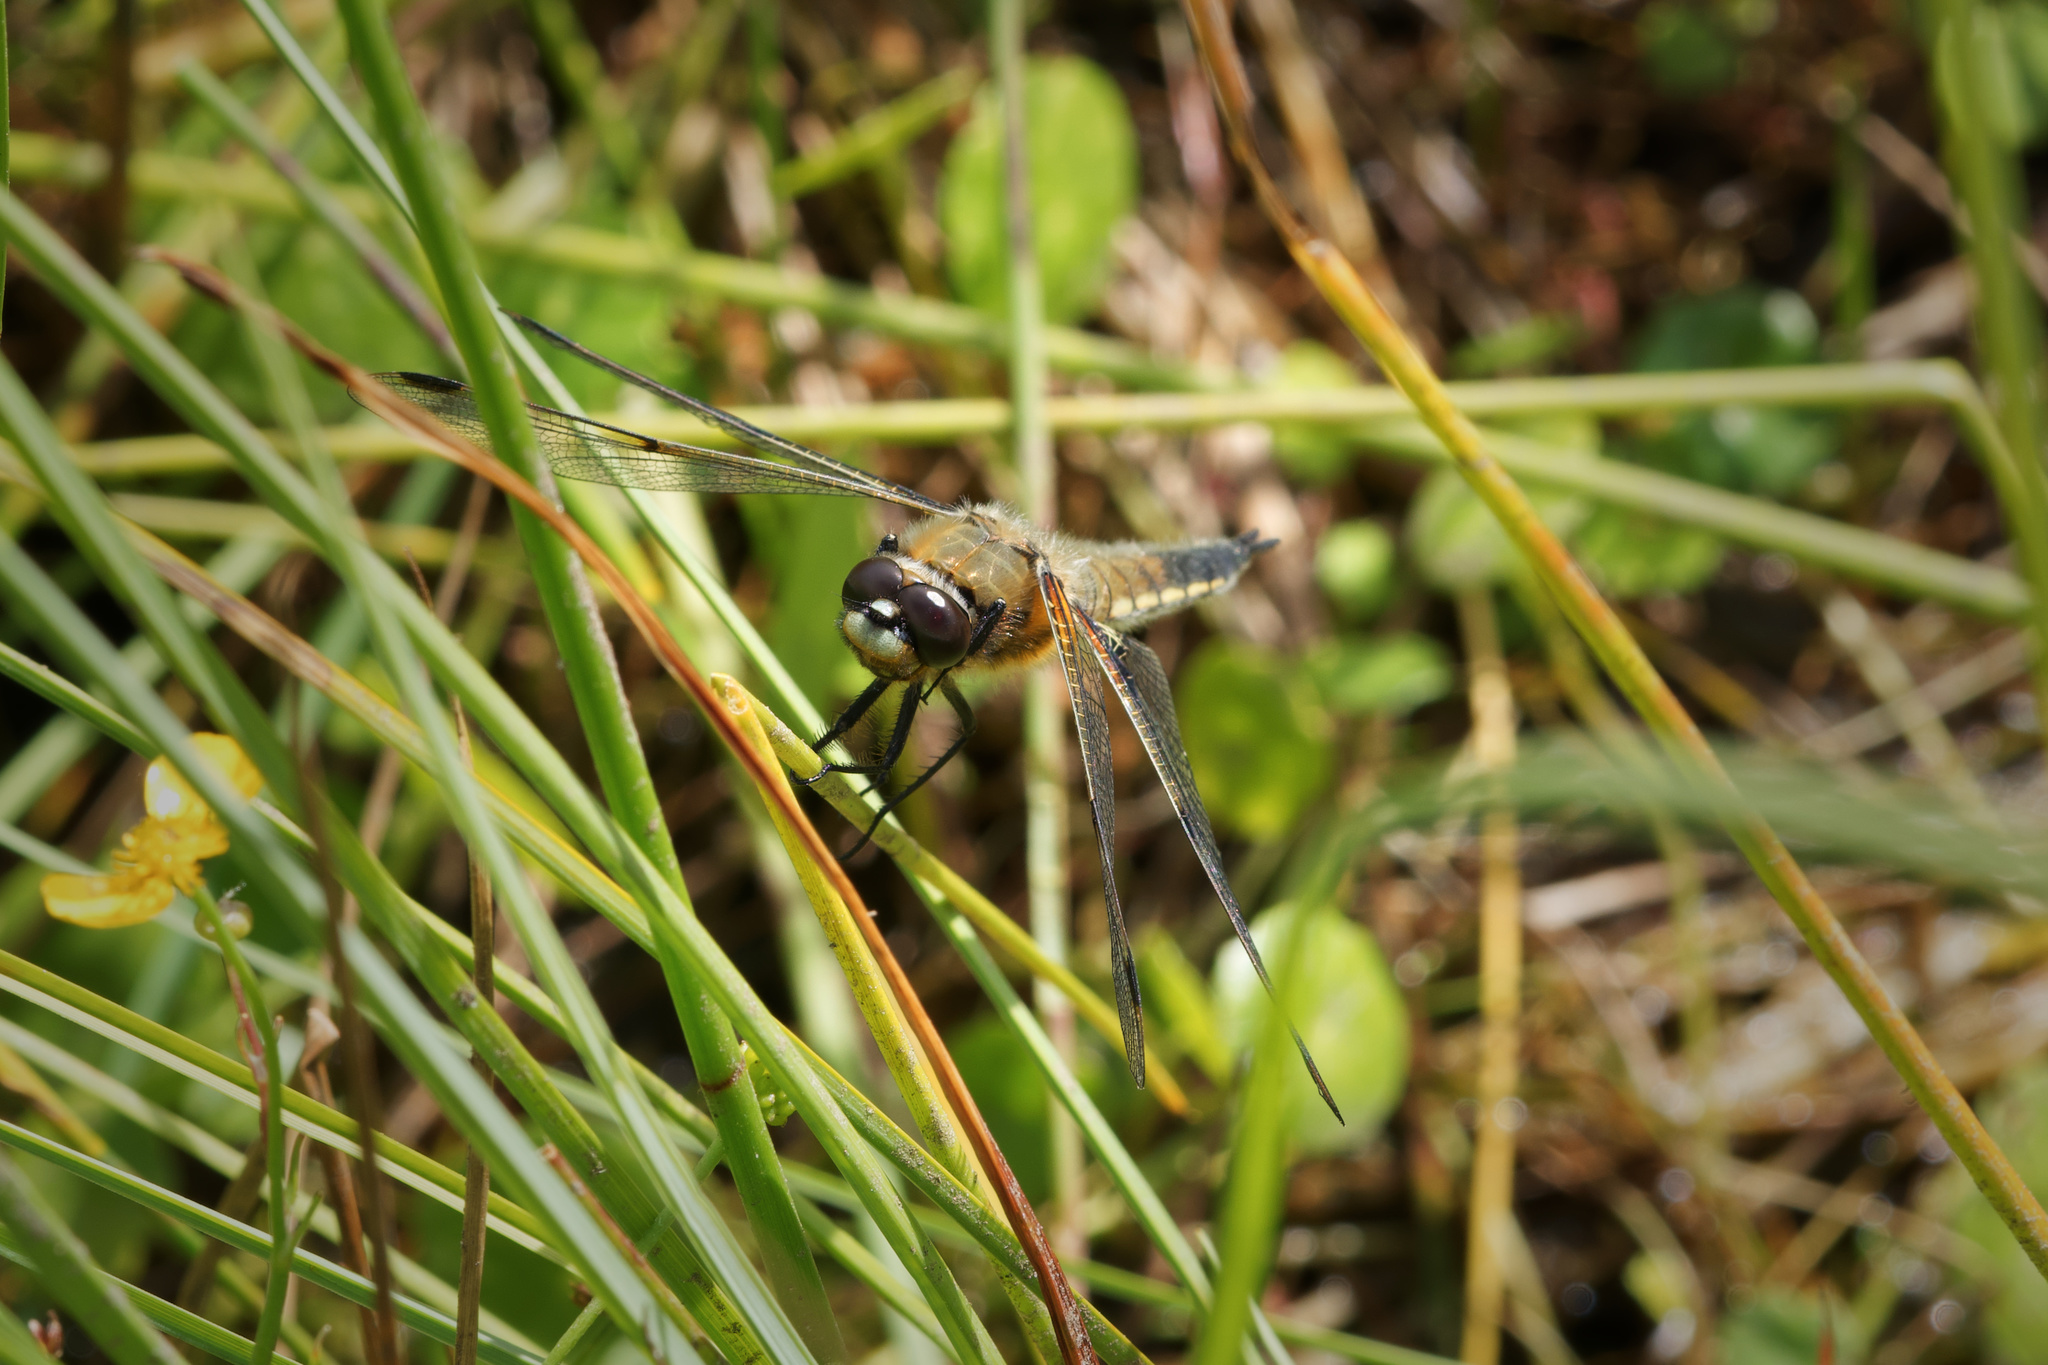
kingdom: Animalia
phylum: Arthropoda
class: Insecta
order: Odonata
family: Libellulidae
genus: Libellula
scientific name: Libellula quadrimaculata
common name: Four-spotted chaser
